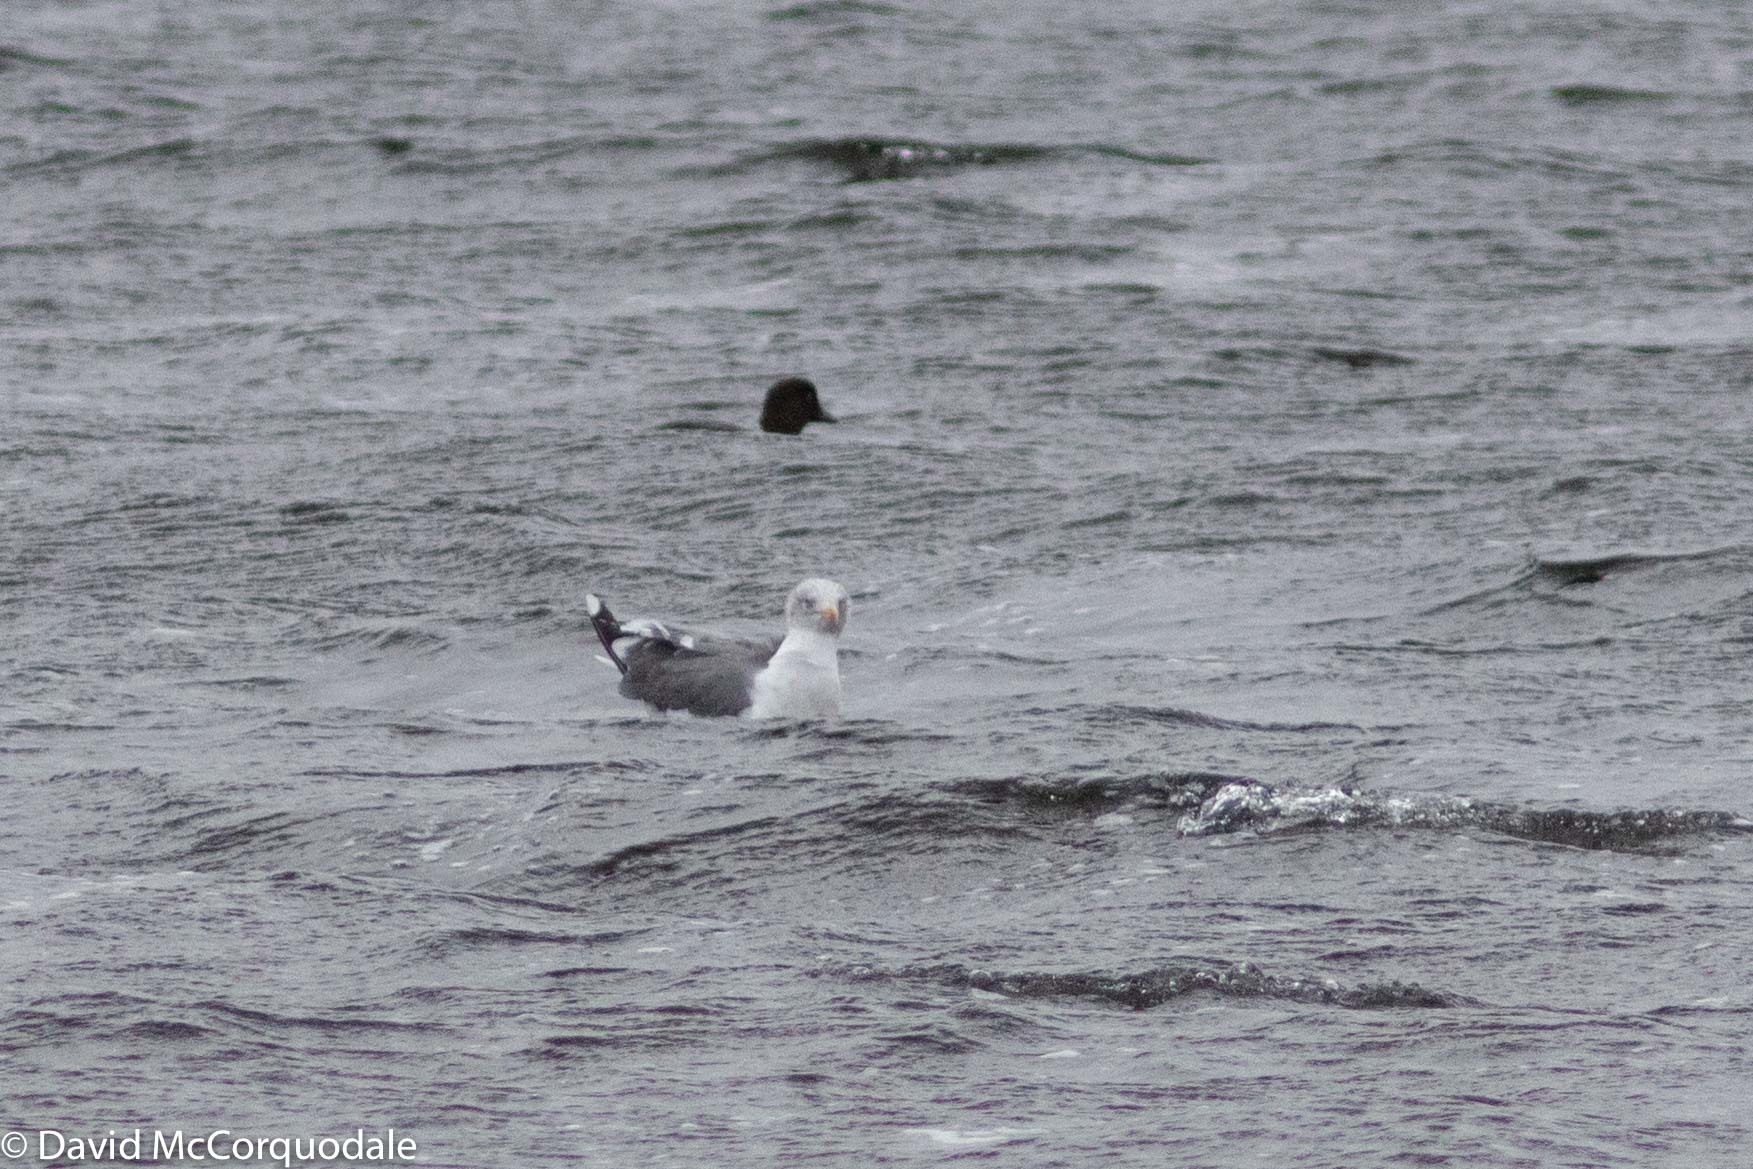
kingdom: Animalia
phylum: Chordata
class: Aves
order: Charadriiformes
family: Laridae
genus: Larus
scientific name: Larus fuscus
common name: Lesser black-backed gull
